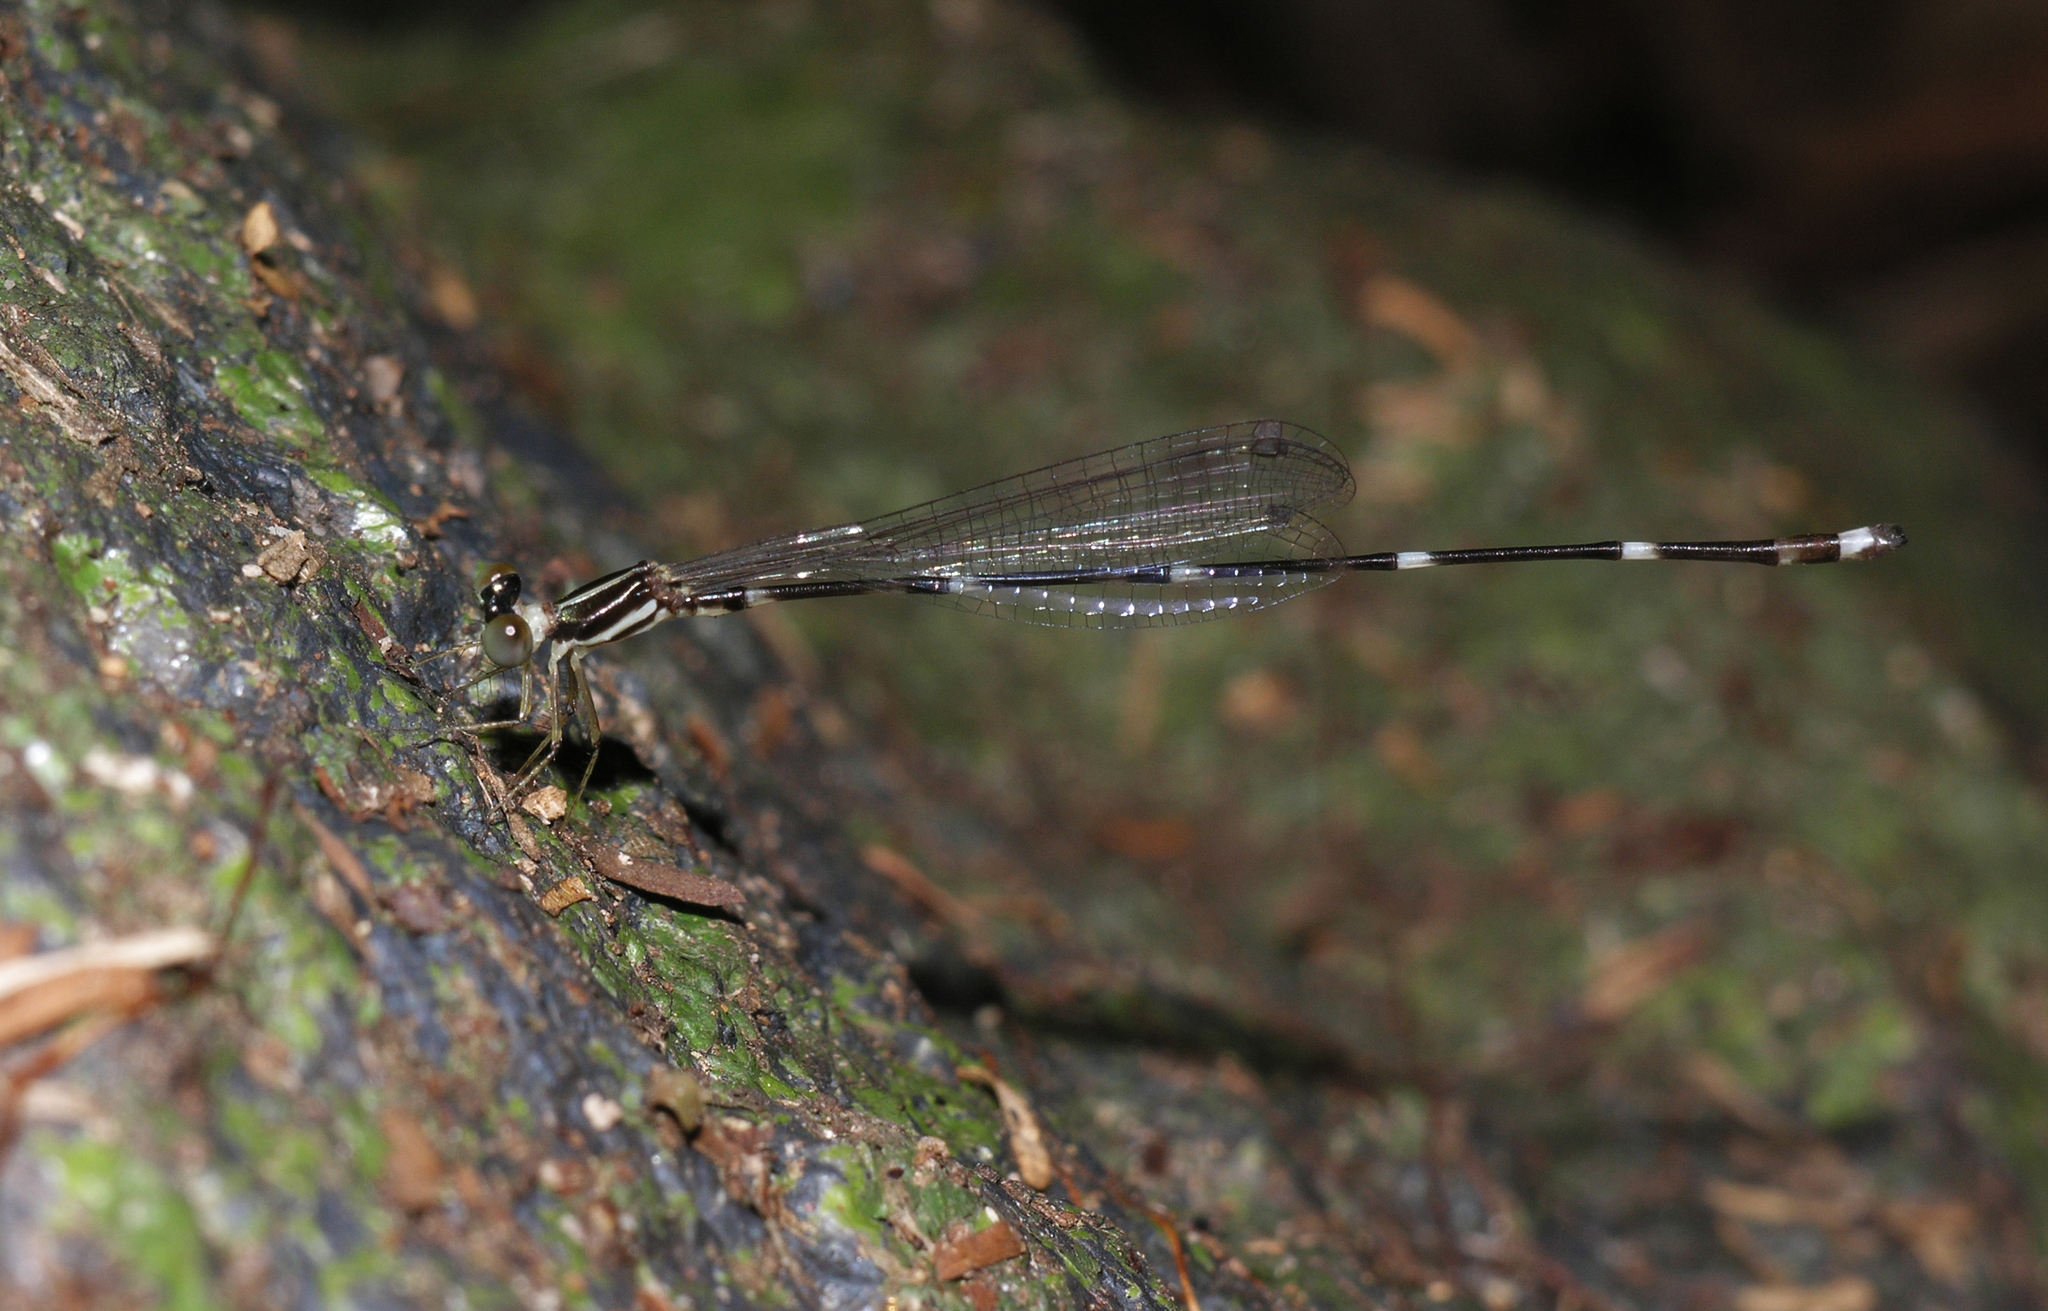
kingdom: Animalia
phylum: Arthropoda
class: Insecta
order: Odonata
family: Platystictidae
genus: Protosticta
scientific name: Protosticta khaosoidaoensis
